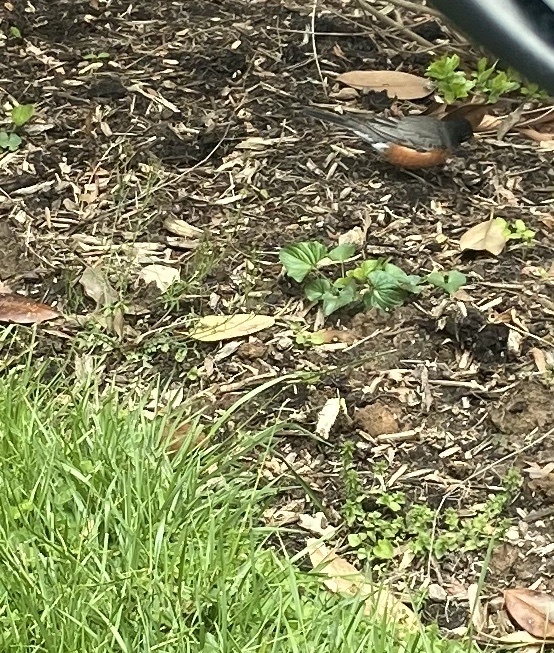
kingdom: Animalia
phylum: Chordata
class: Aves
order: Passeriformes
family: Turdidae
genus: Turdus
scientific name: Turdus migratorius
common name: American robin
